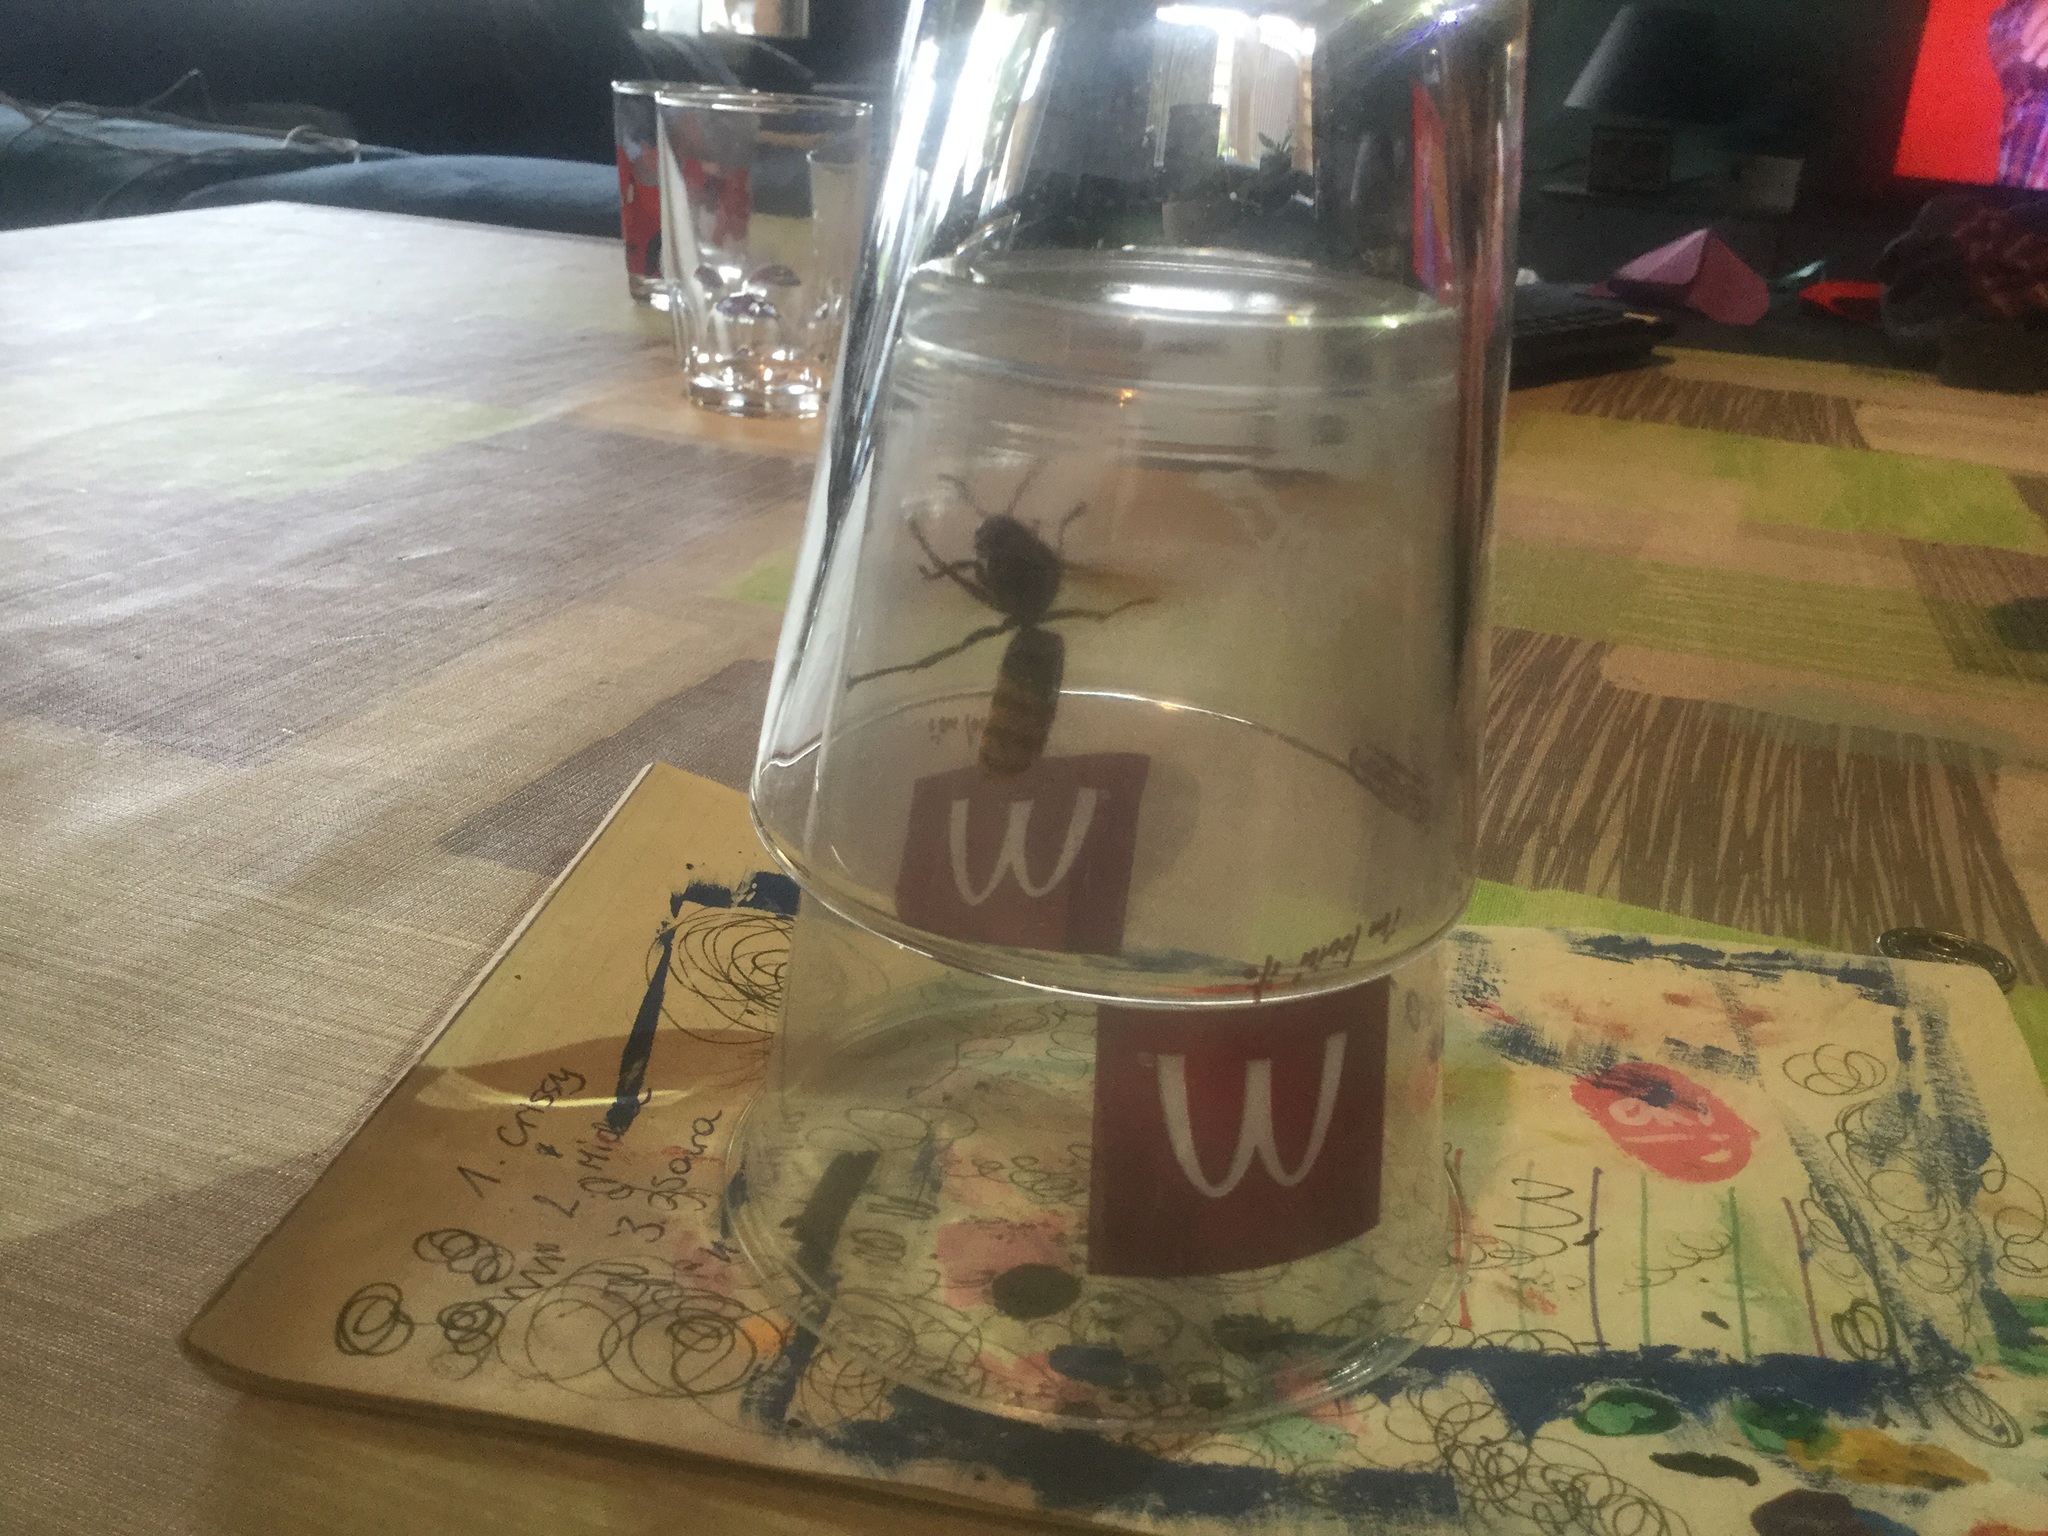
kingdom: Animalia
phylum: Arthropoda
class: Insecta
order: Hymenoptera
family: Vespidae
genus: Vespa
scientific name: Vespa crabro
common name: Hornet
